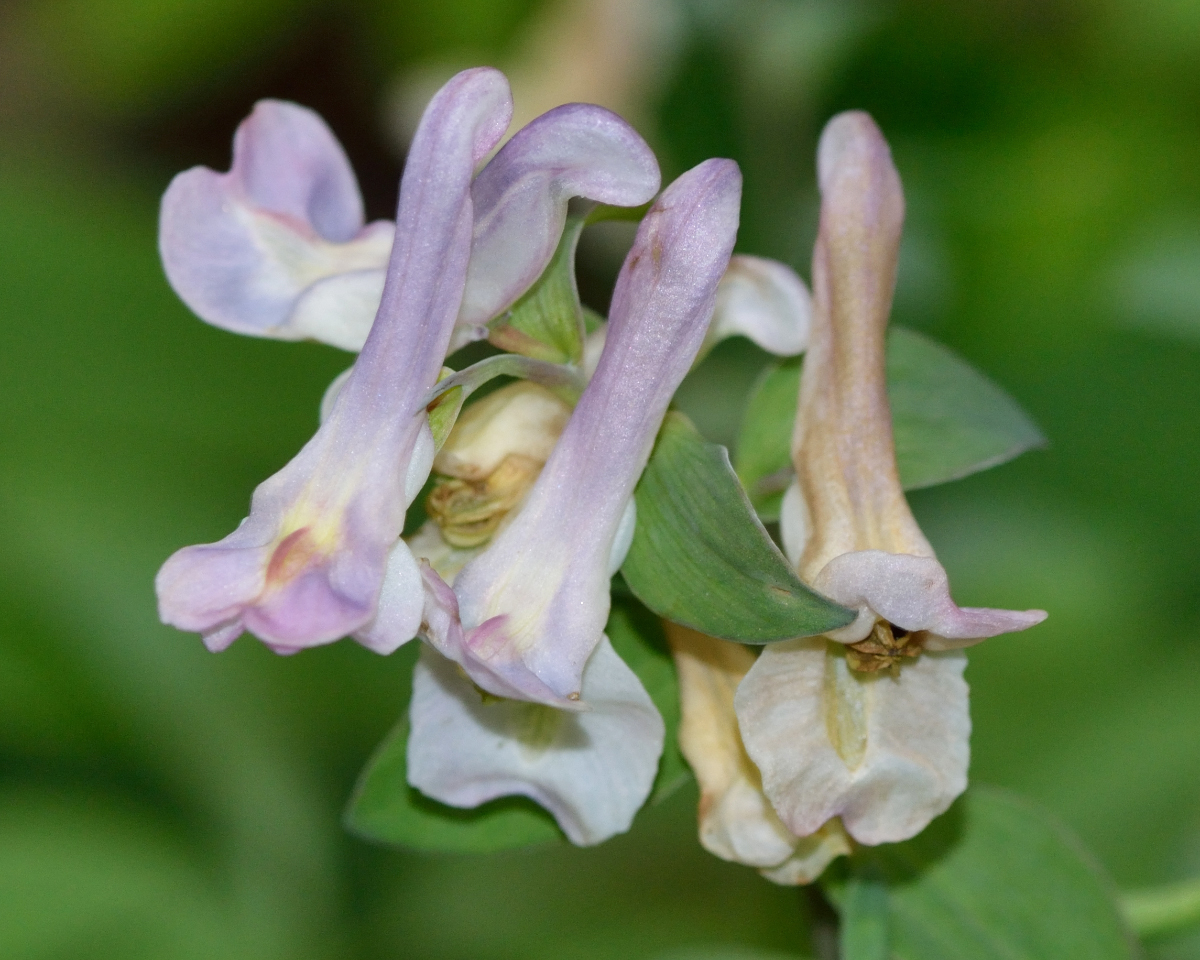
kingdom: Plantae
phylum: Tracheophyta
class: Magnoliopsida
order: Ranunculales
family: Papaveraceae
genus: Corydalis
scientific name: Corydalis cava
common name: Hollowroot
